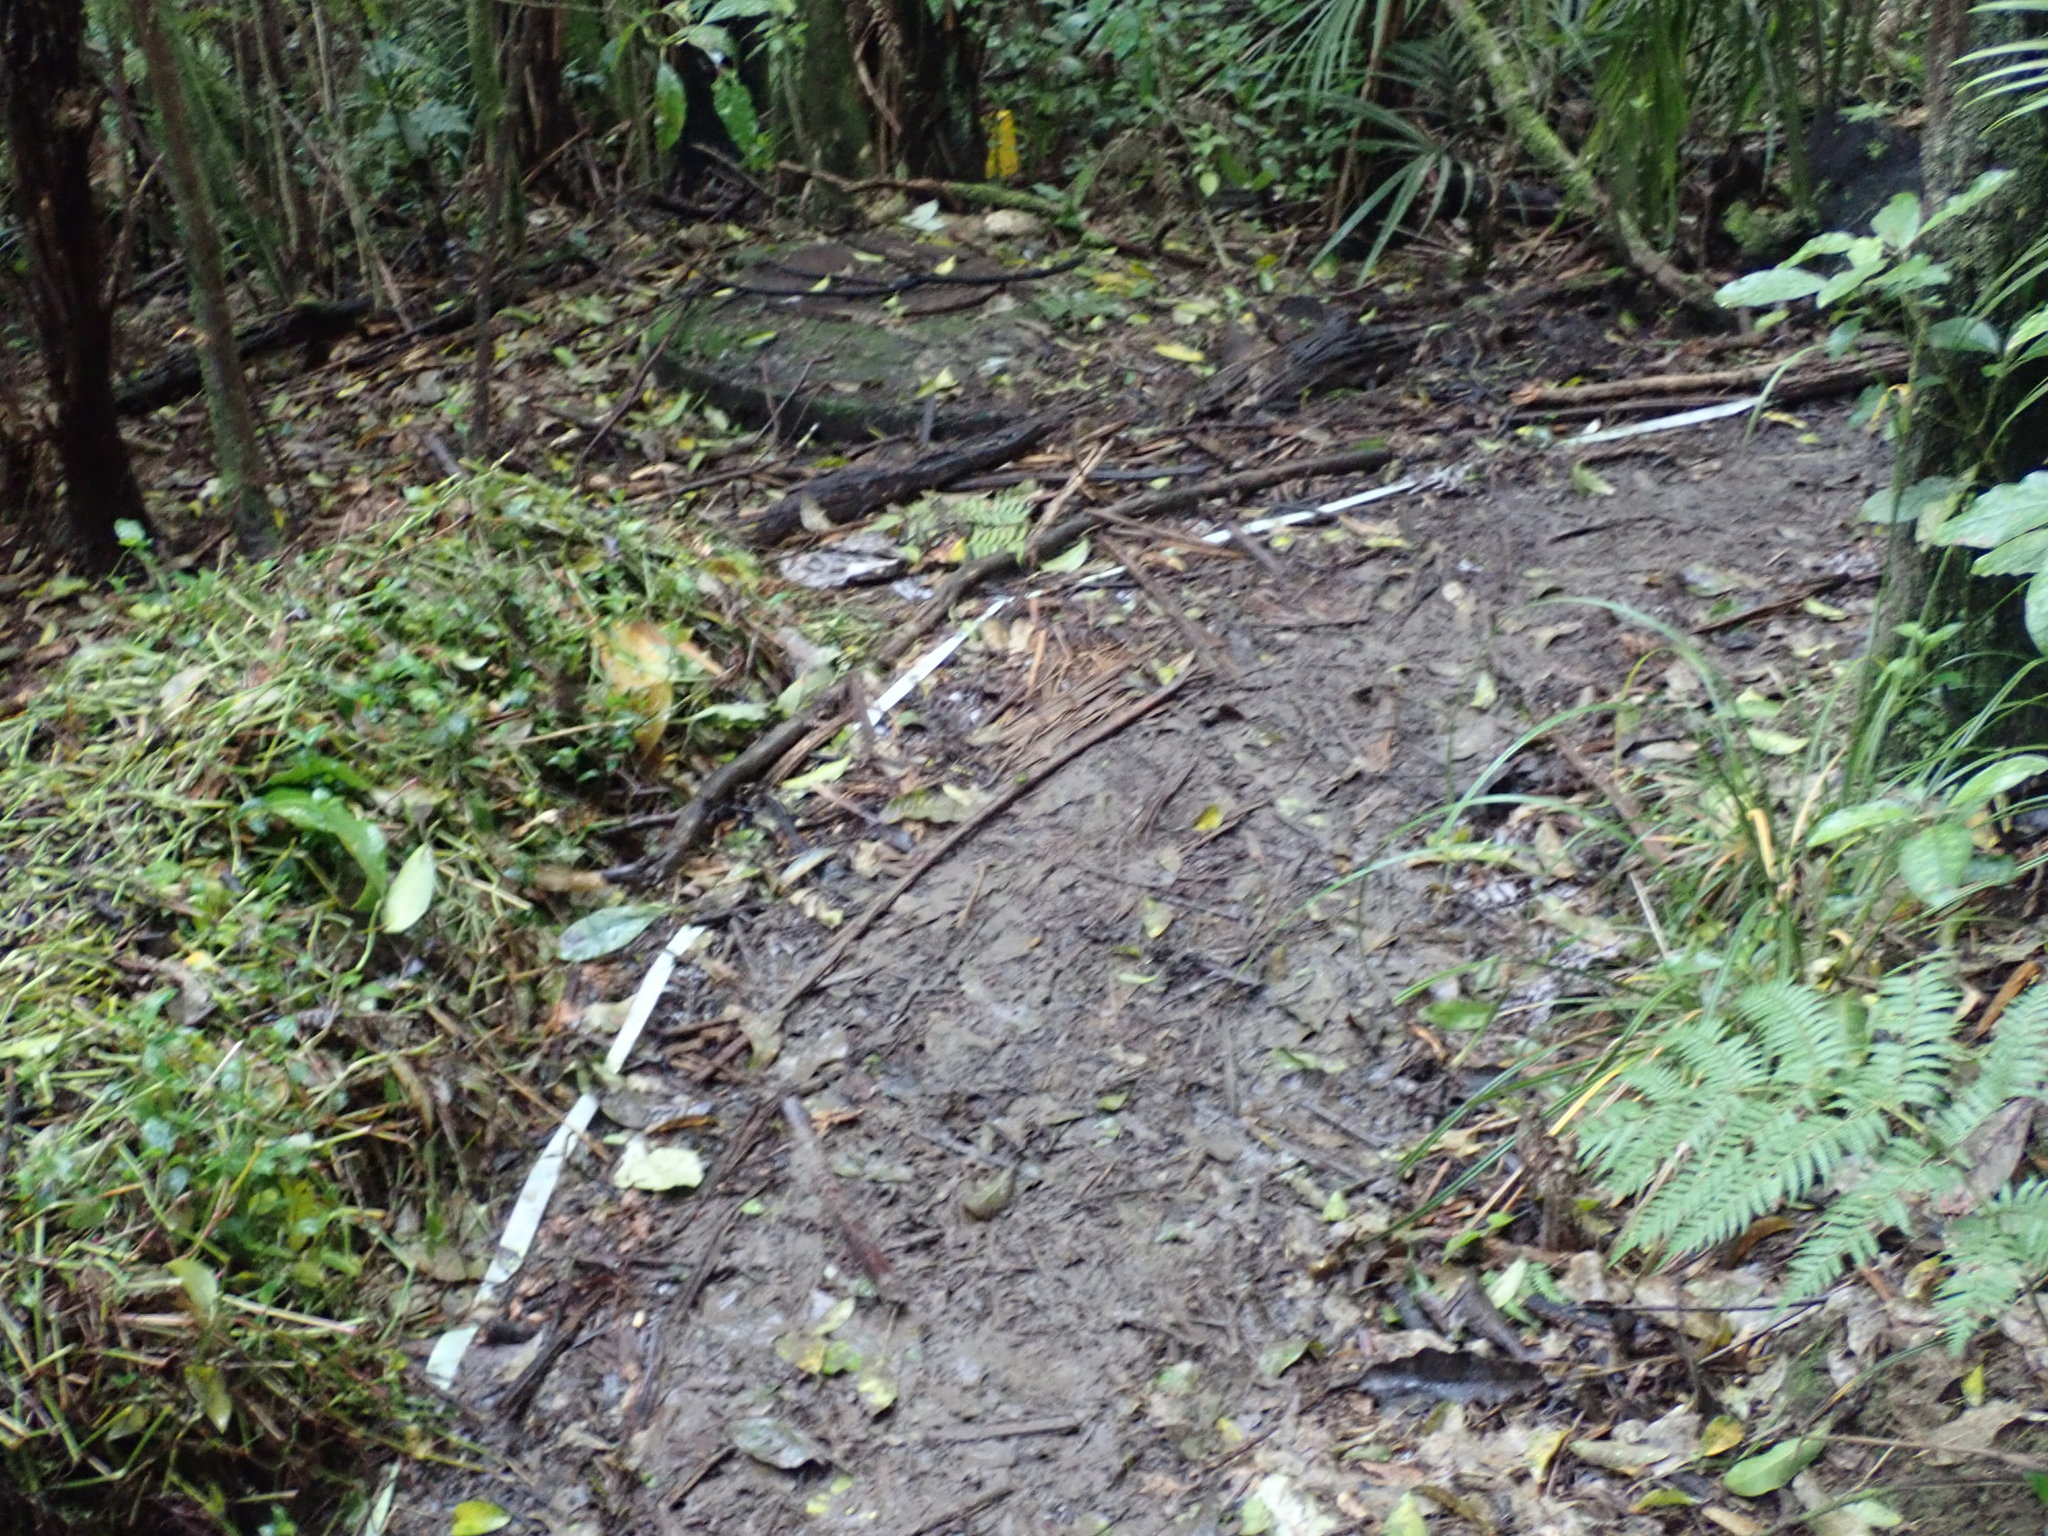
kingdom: Plantae
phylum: Tracheophyta
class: Liliopsida
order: Commelinales
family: Commelinaceae
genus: Tradescantia
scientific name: Tradescantia fluminensis
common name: Wandering-jew
